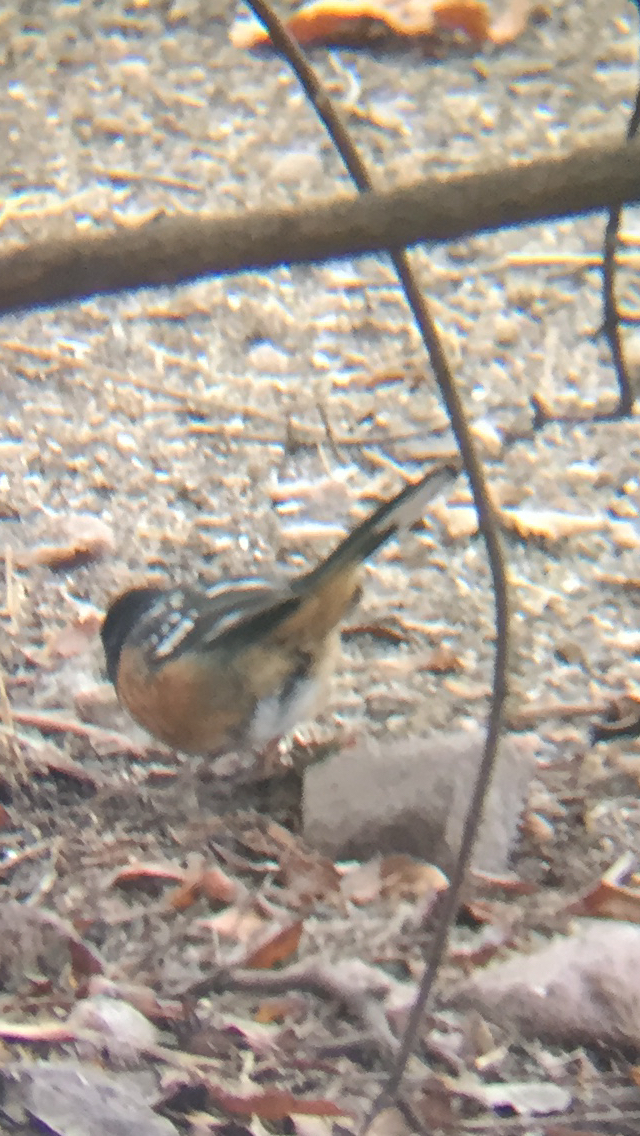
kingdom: Animalia
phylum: Chordata
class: Aves
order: Passeriformes
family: Passerellidae
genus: Pipilo
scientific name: Pipilo maculatus
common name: Spotted towhee
